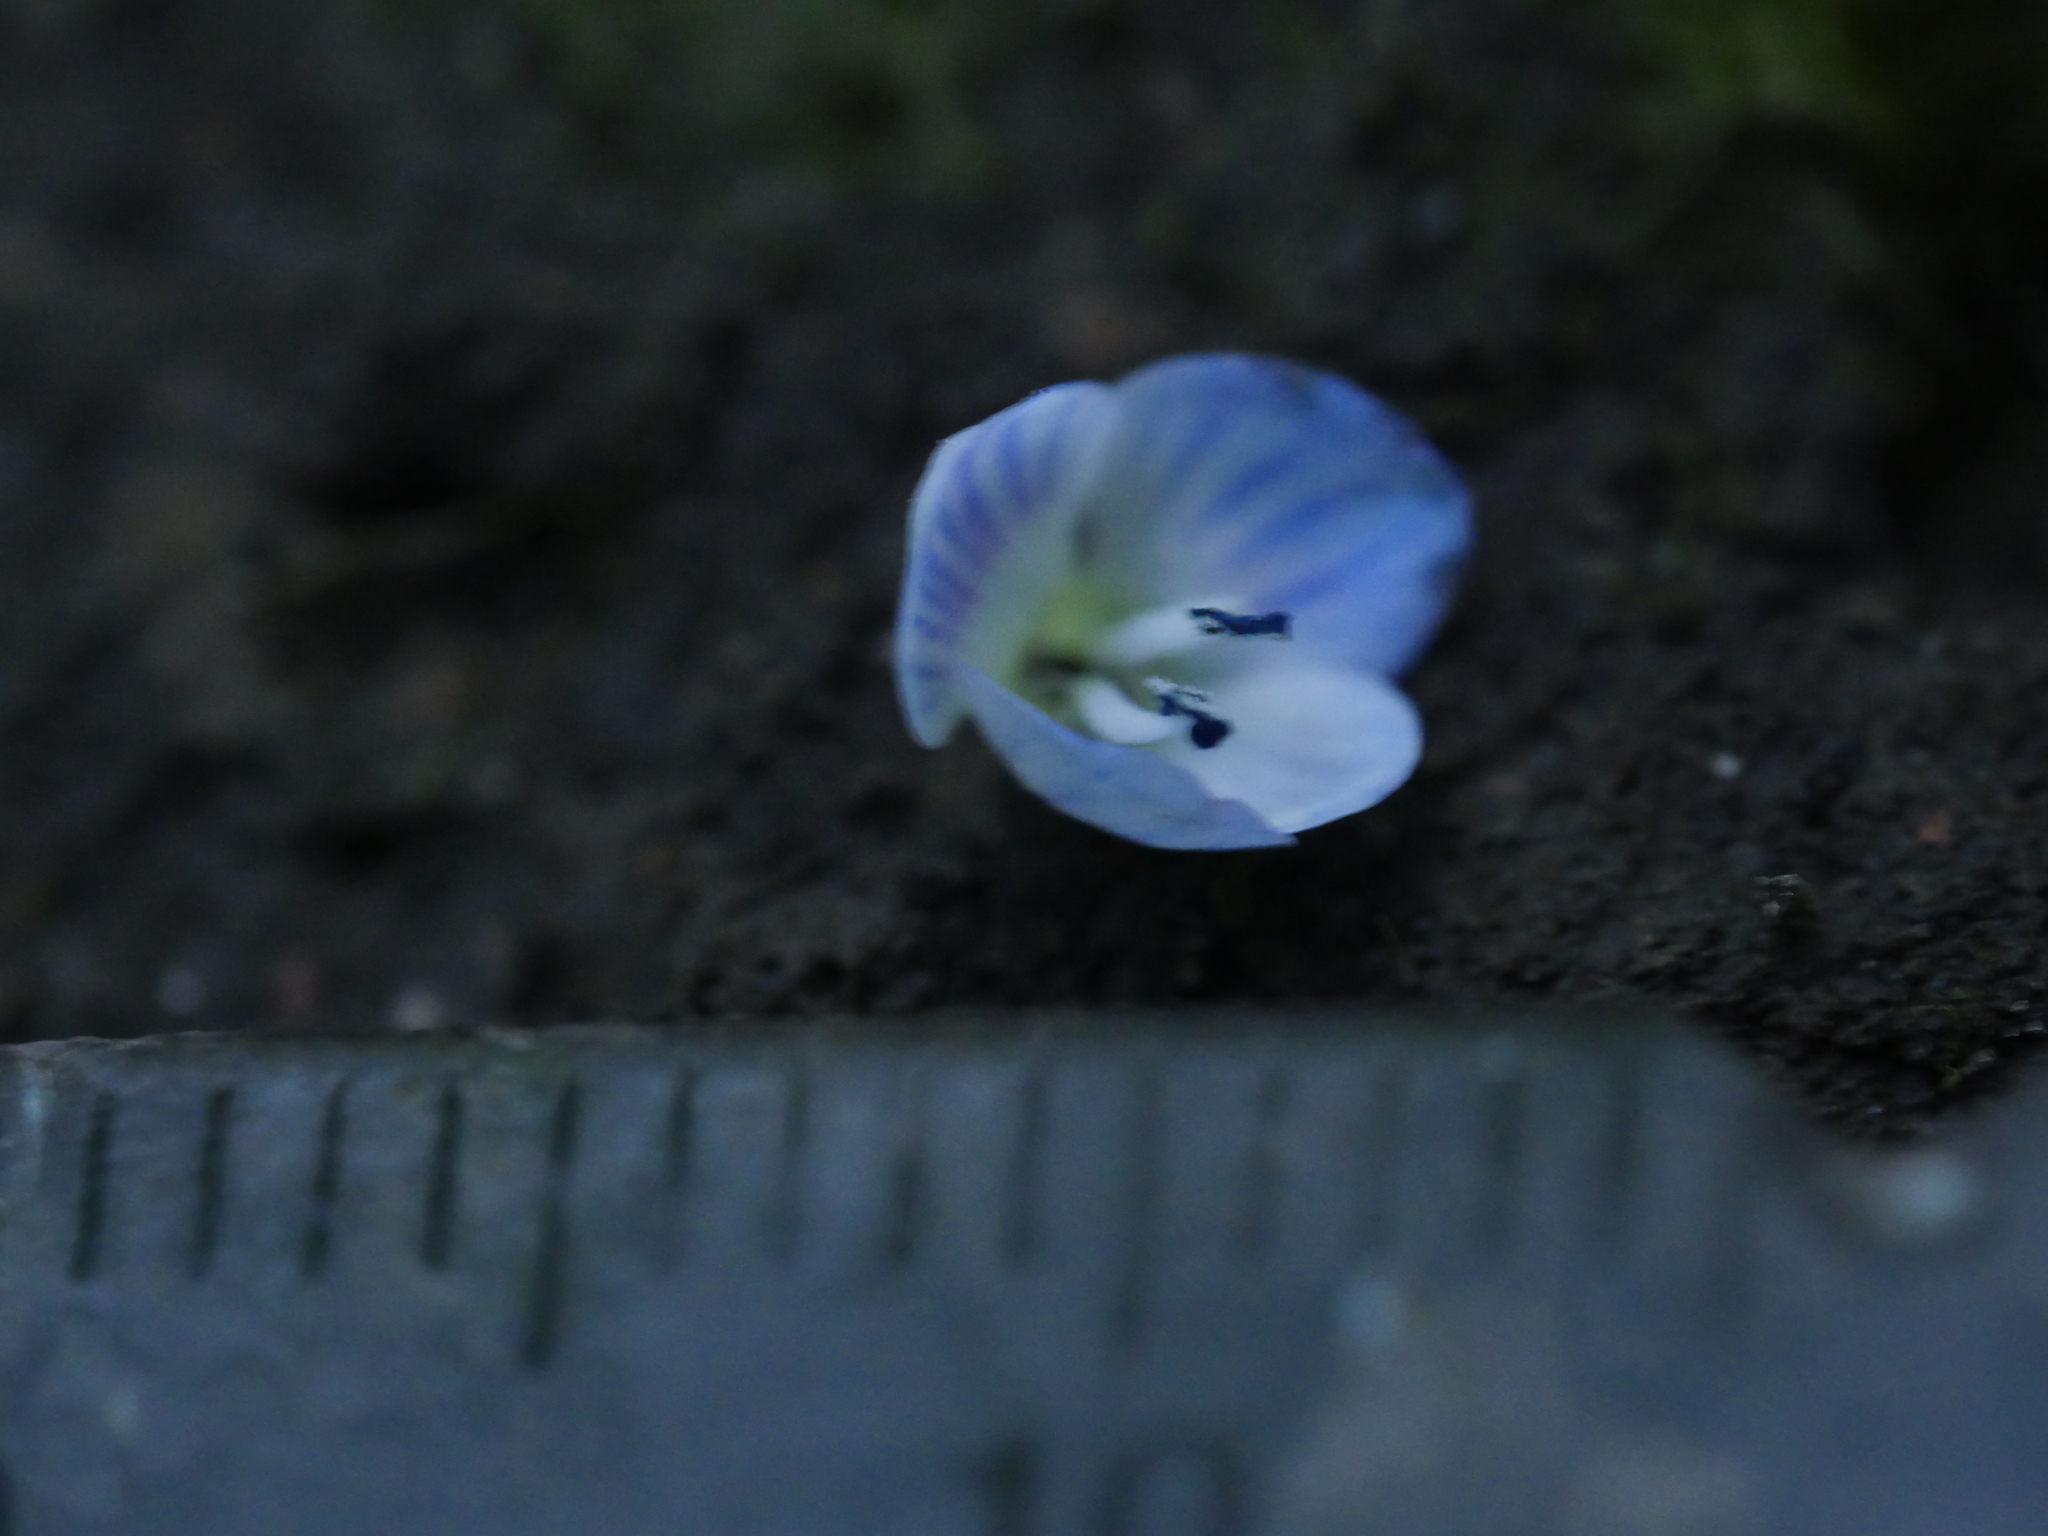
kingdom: Plantae
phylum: Tracheophyta
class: Magnoliopsida
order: Lamiales
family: Plantaginaceae
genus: Veronica
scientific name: Veronica persica
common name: Common field-speedwell
